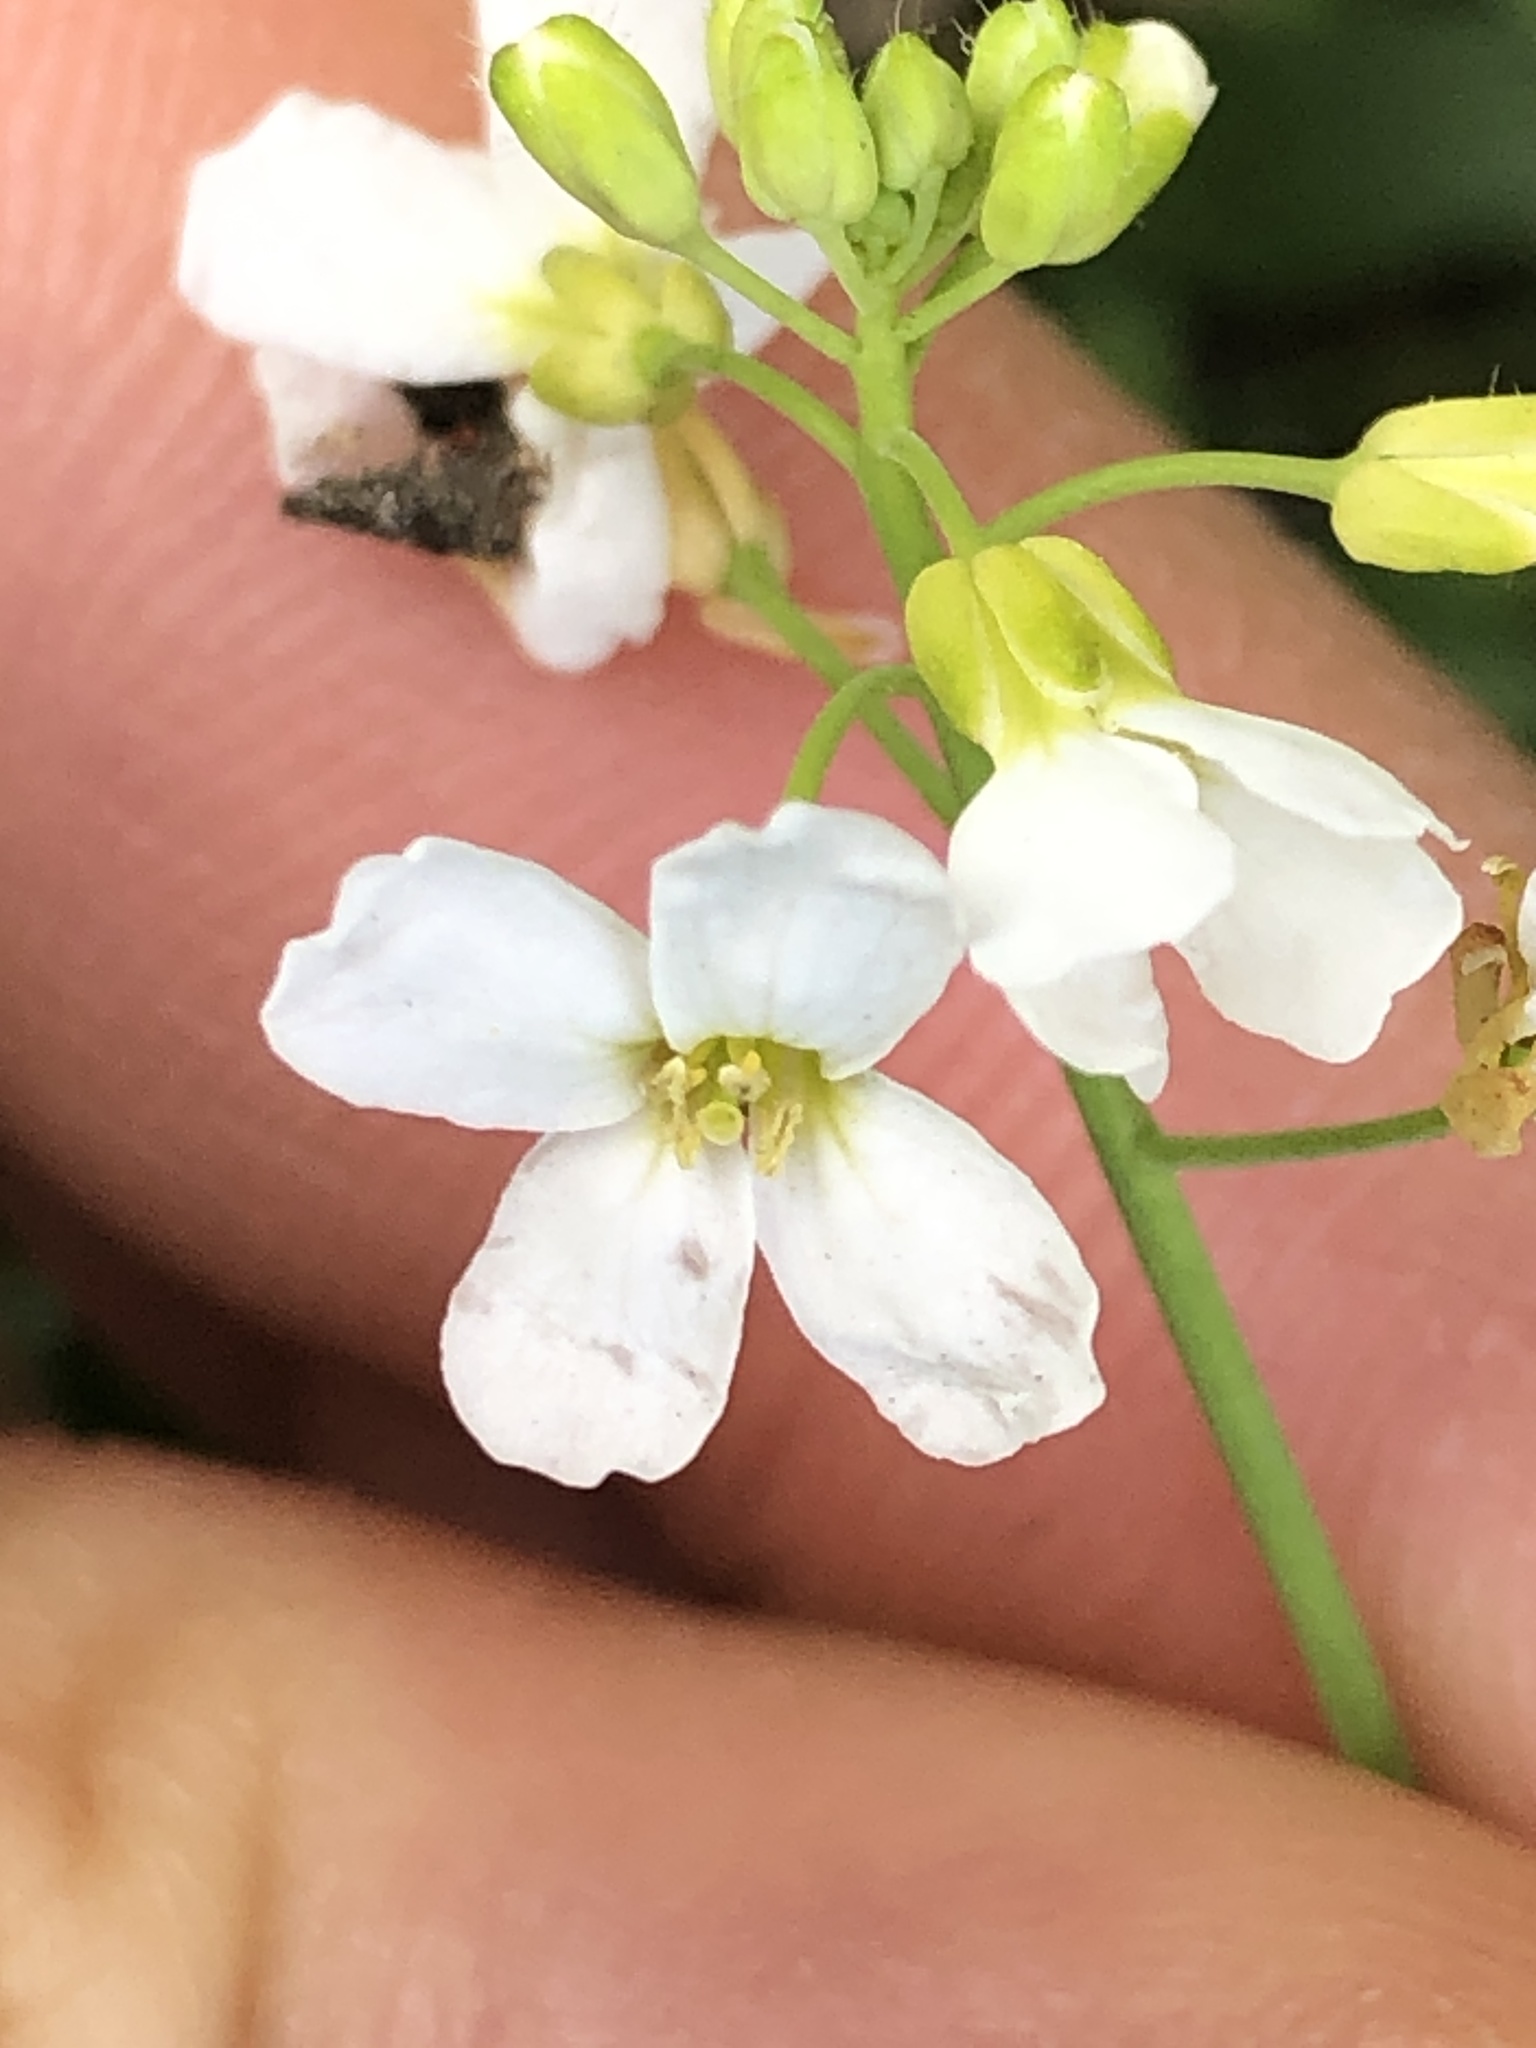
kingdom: Plantae
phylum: Tracheophyta
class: Magnoliopsida
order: Brassicales
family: Brassicaceae
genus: Cardamine
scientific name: Cardamine pratensis
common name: Cuckoo flower
